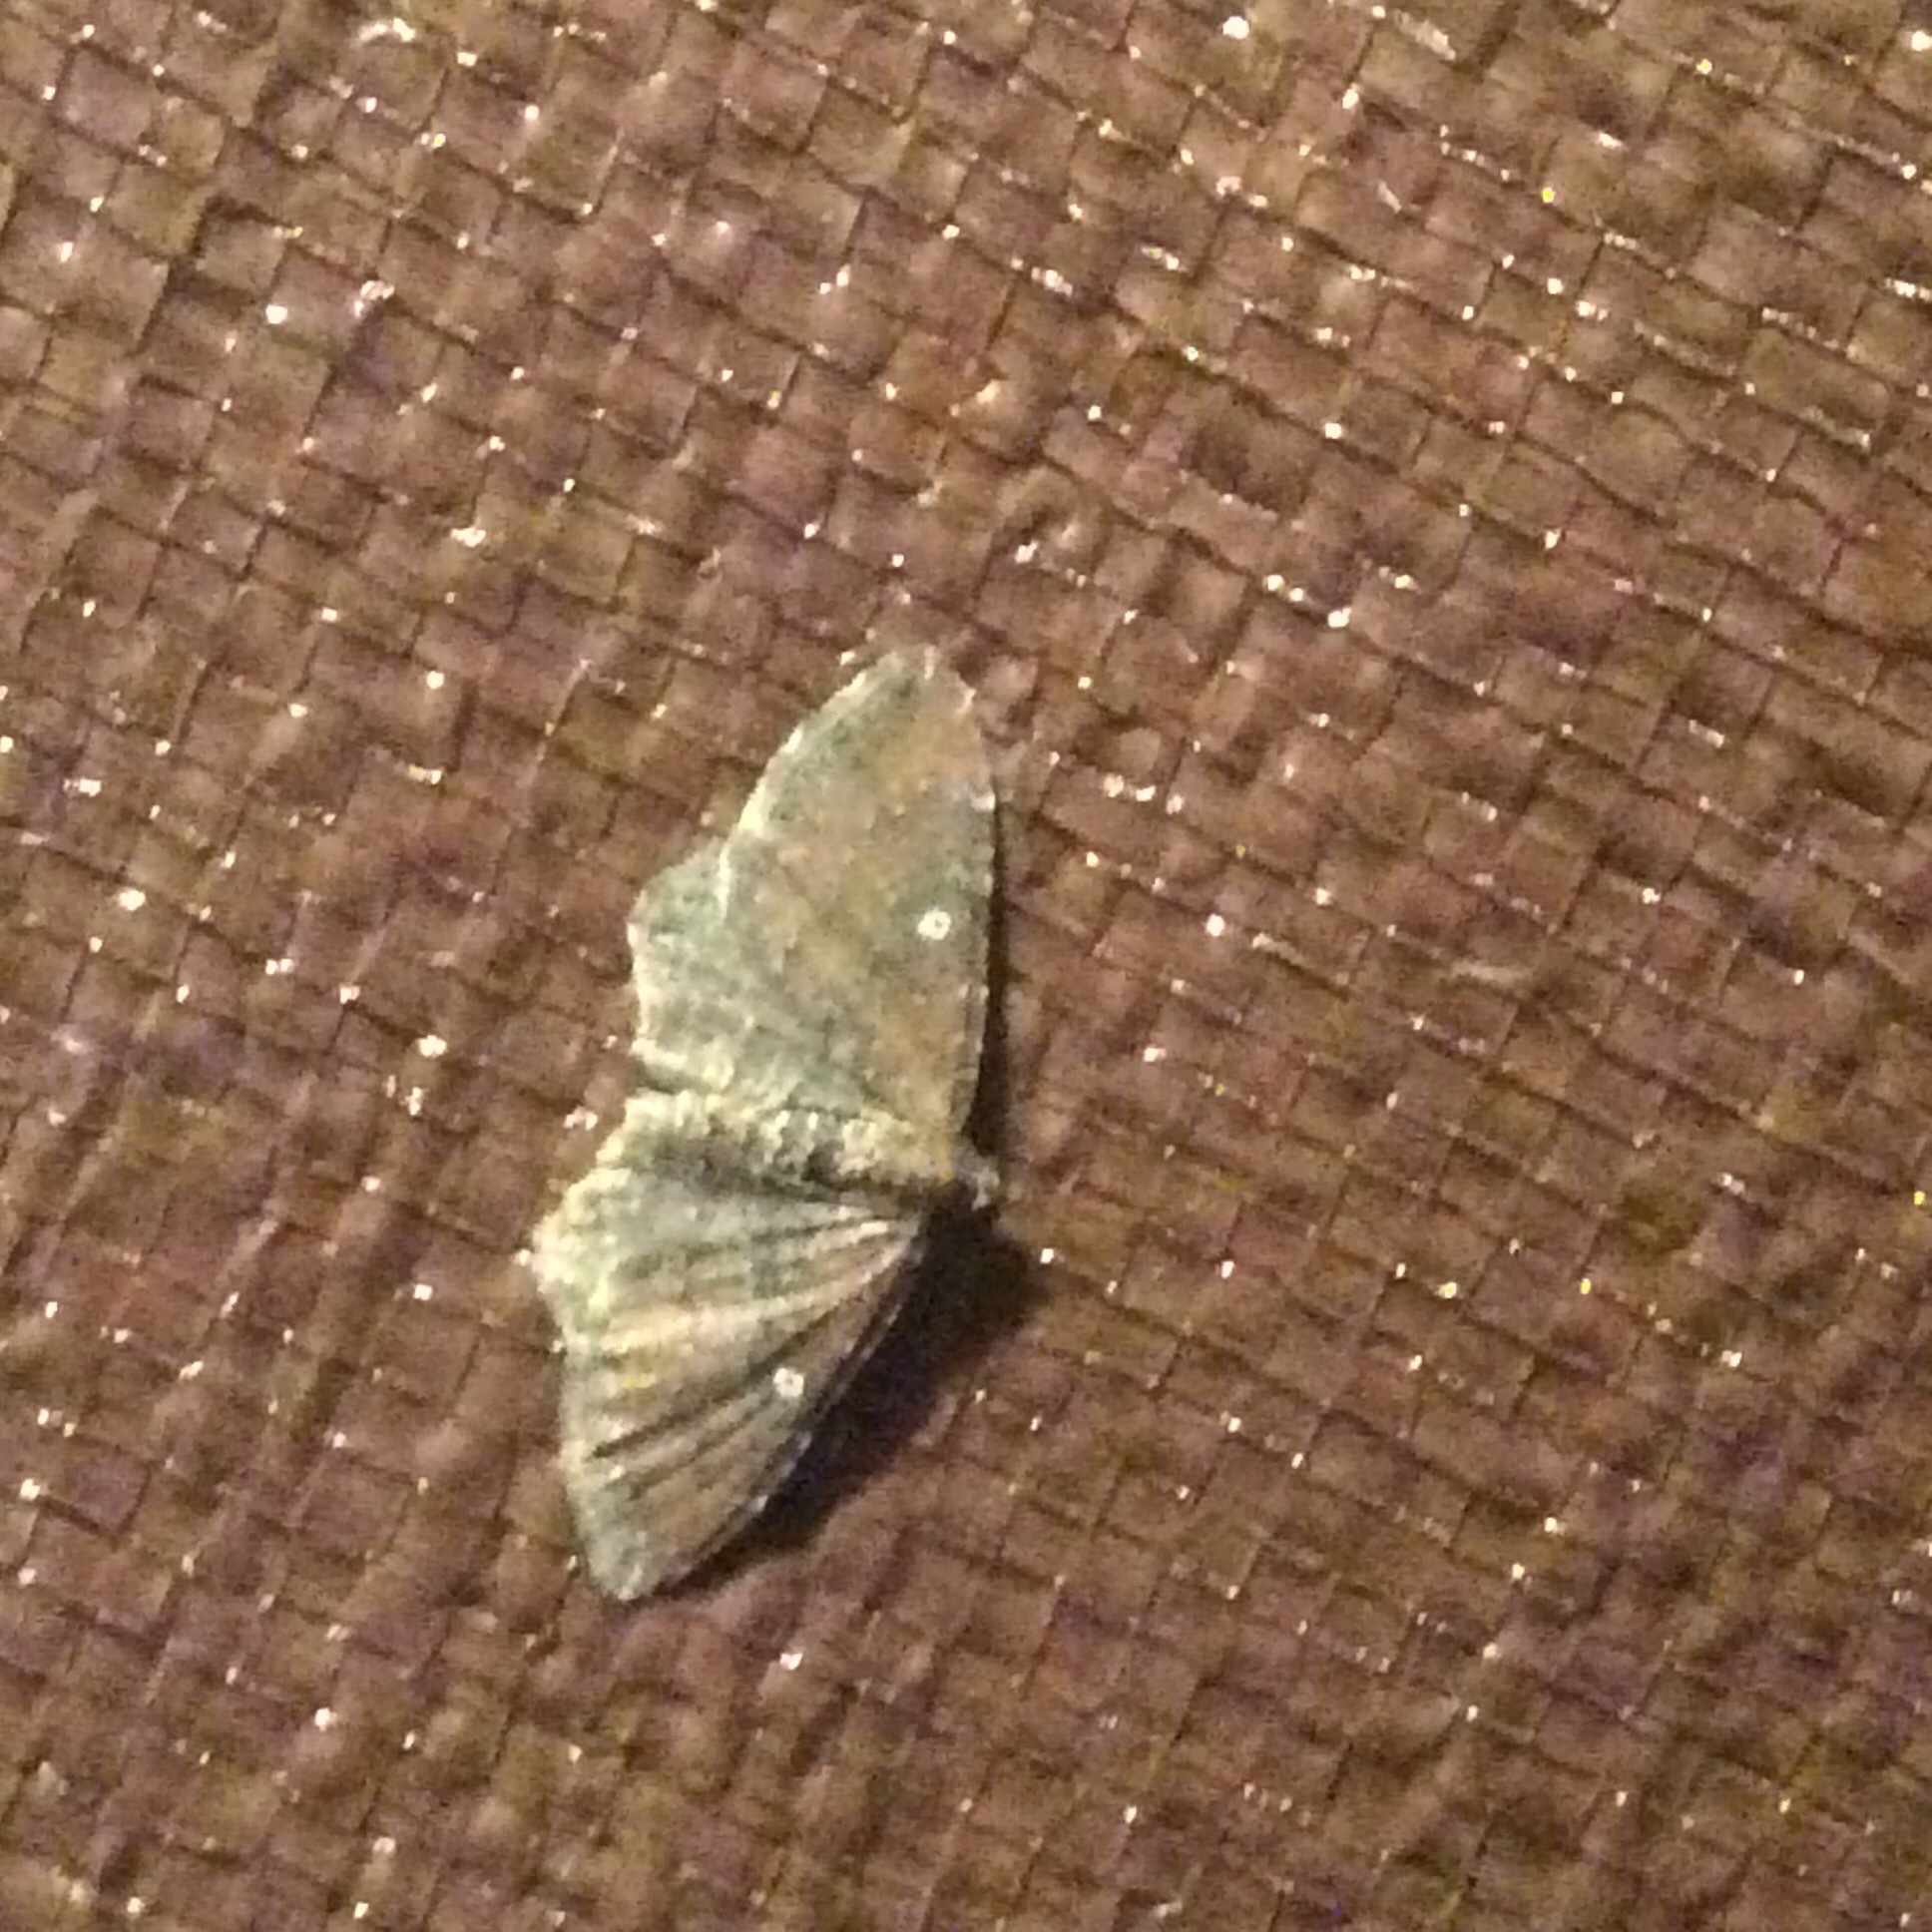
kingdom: Animalia
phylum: Arthropoda
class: Insecta
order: Lepidoptera
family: Geometridae
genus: Orthonama
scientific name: Orthonama obstipata
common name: The gem
